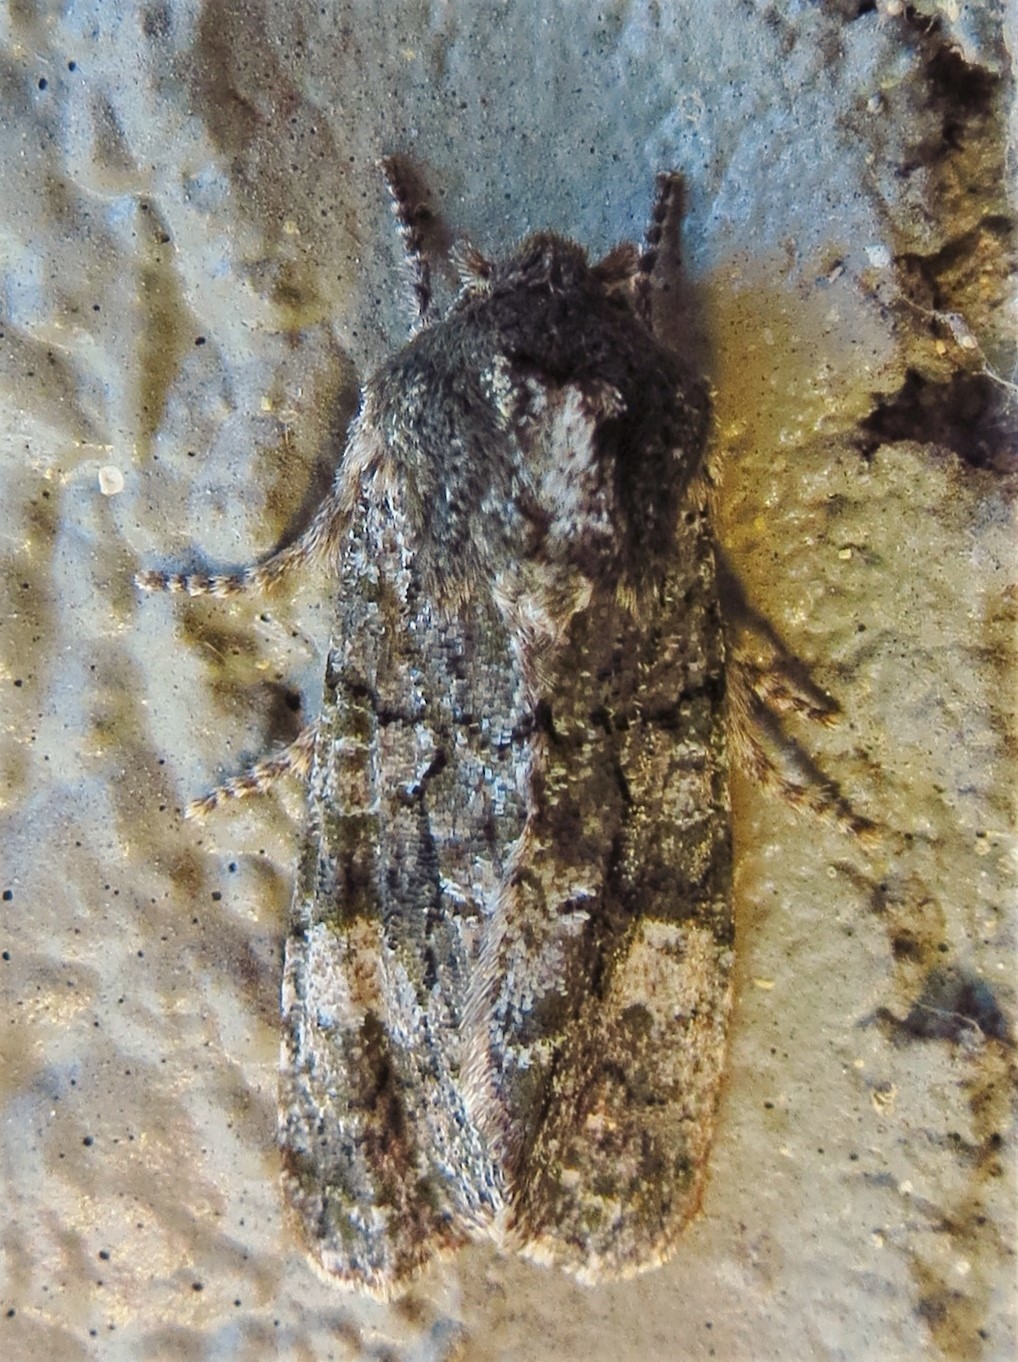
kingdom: Animalia
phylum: Arthropoda
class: Insecta
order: Lepidoptera
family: Noctuidae
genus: Psaphida
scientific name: Psaphida grotei
